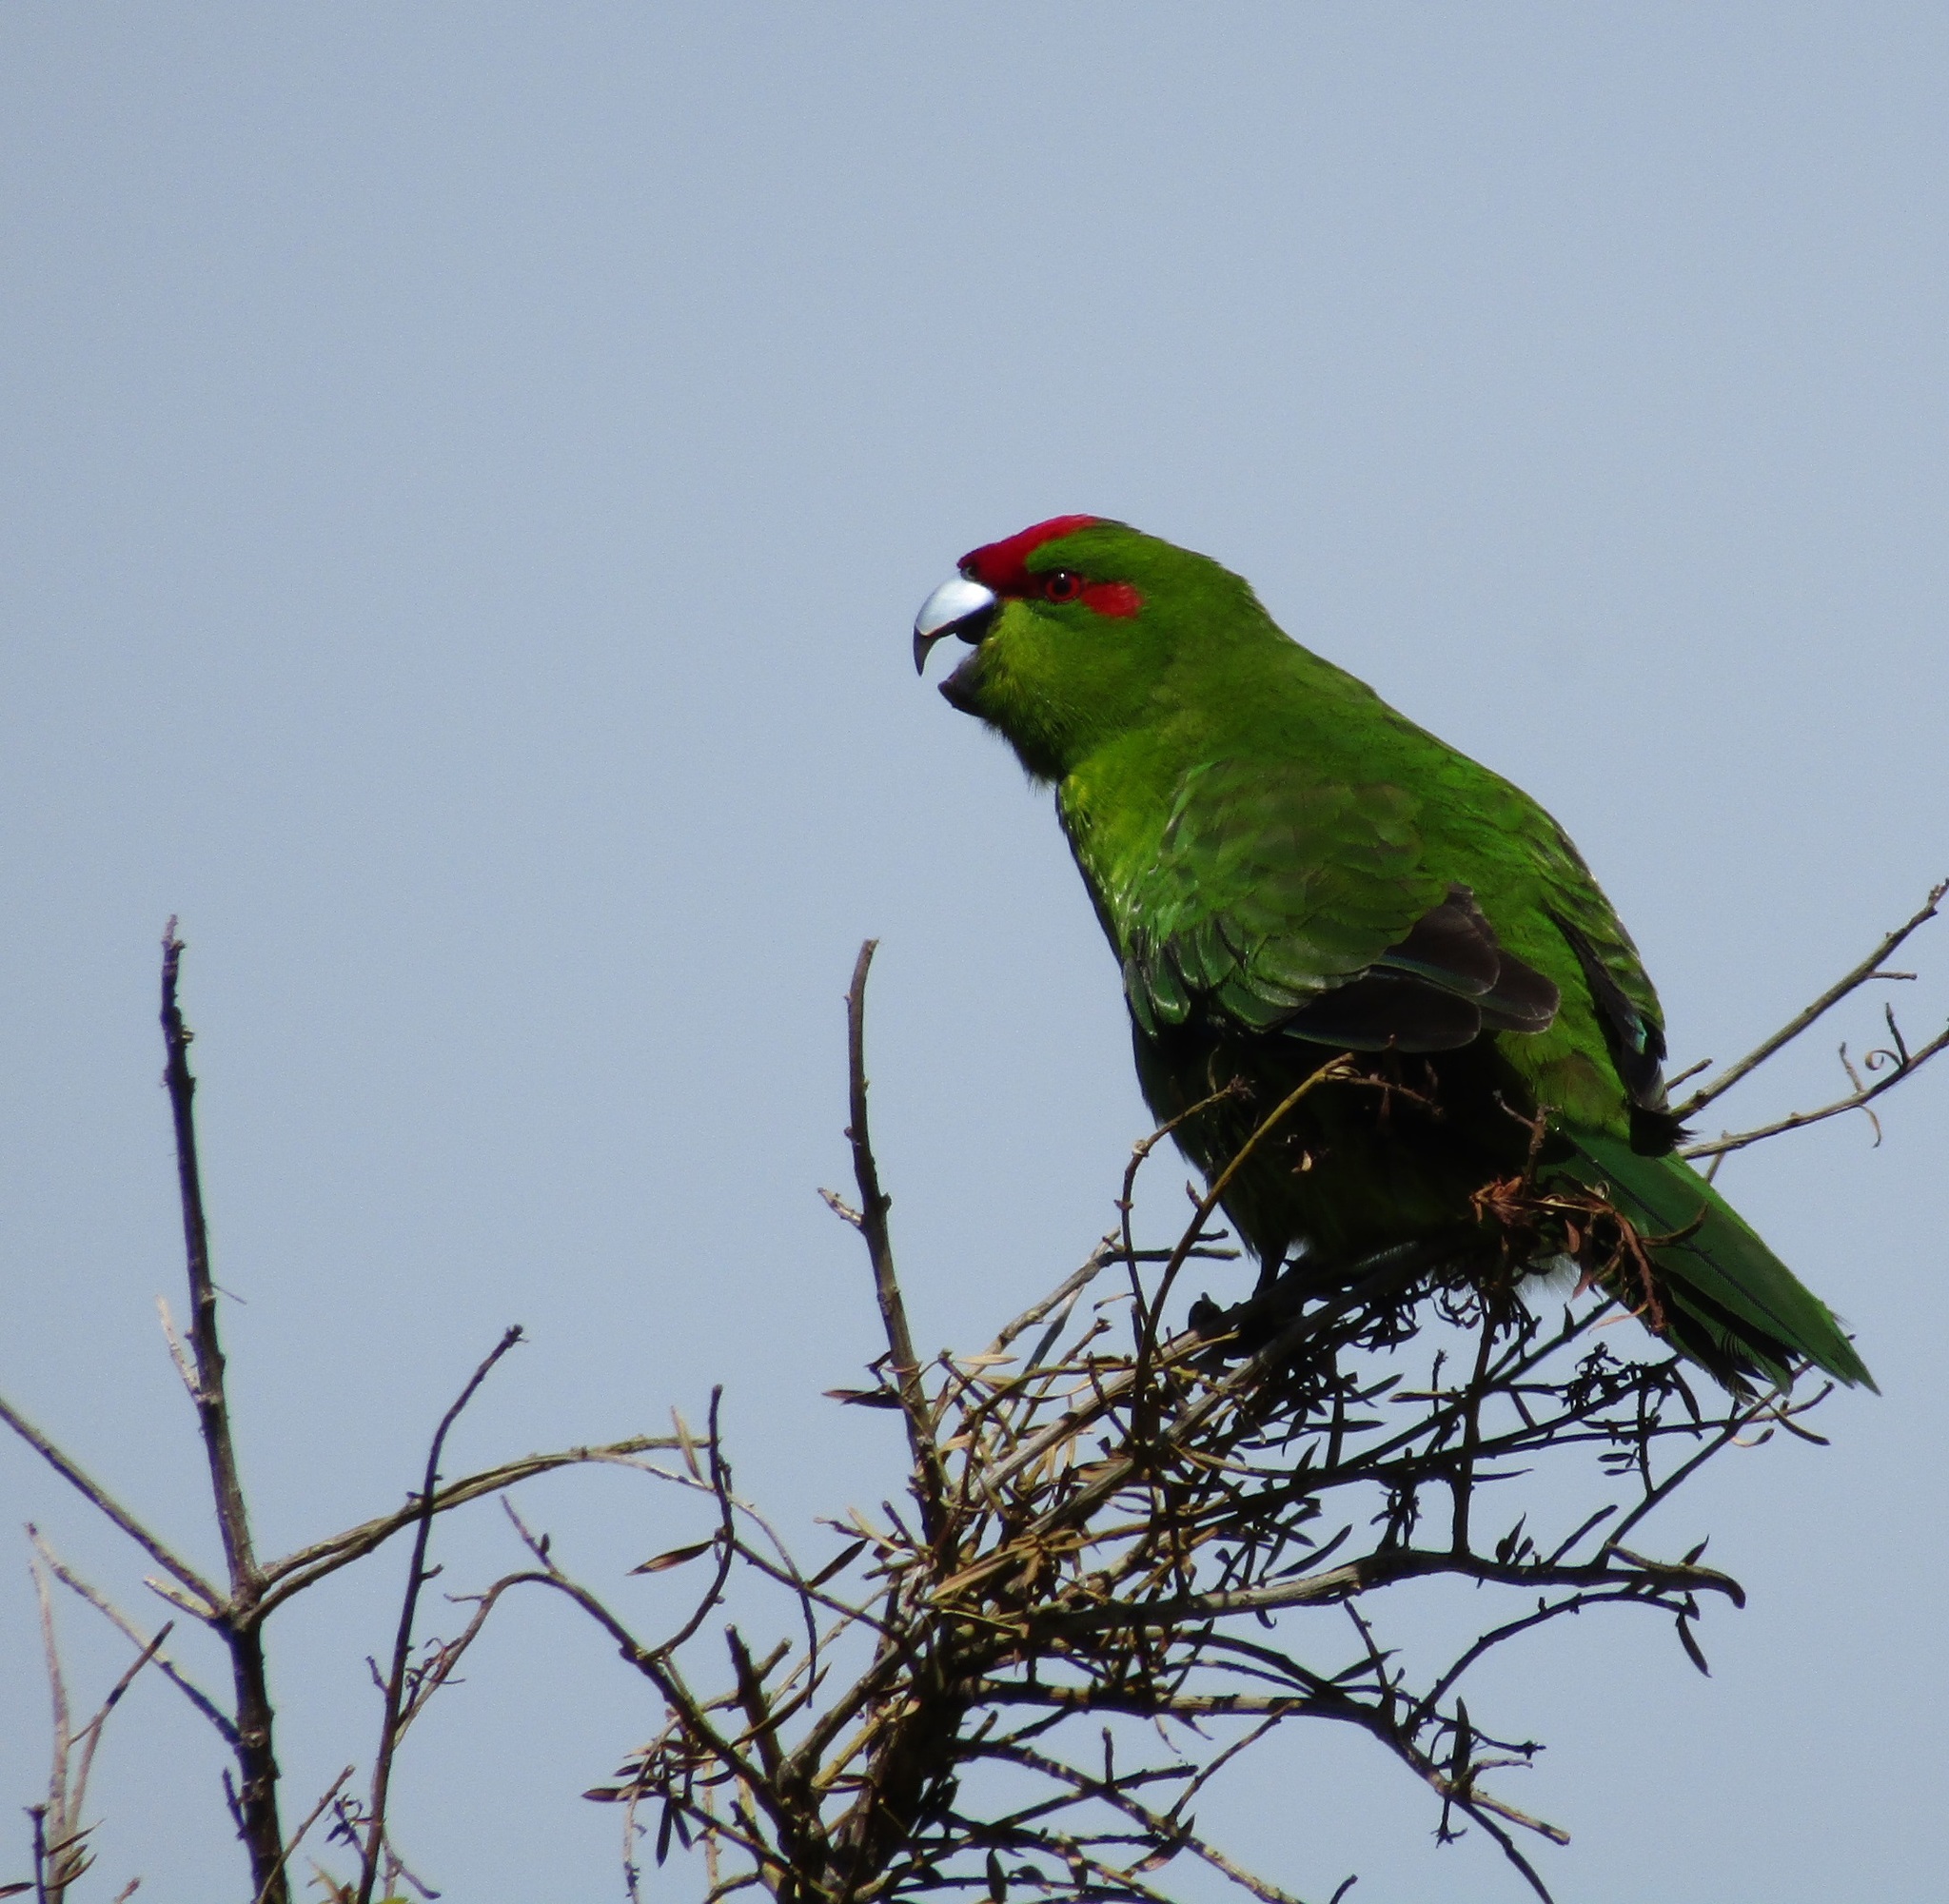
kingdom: Animalia
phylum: Chordata
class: Aves
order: Psittaciformes
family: Psittacidae
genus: Cyanoramphus
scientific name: Cyanoramphus novaezelandiae
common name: Red-fronted parakeet
